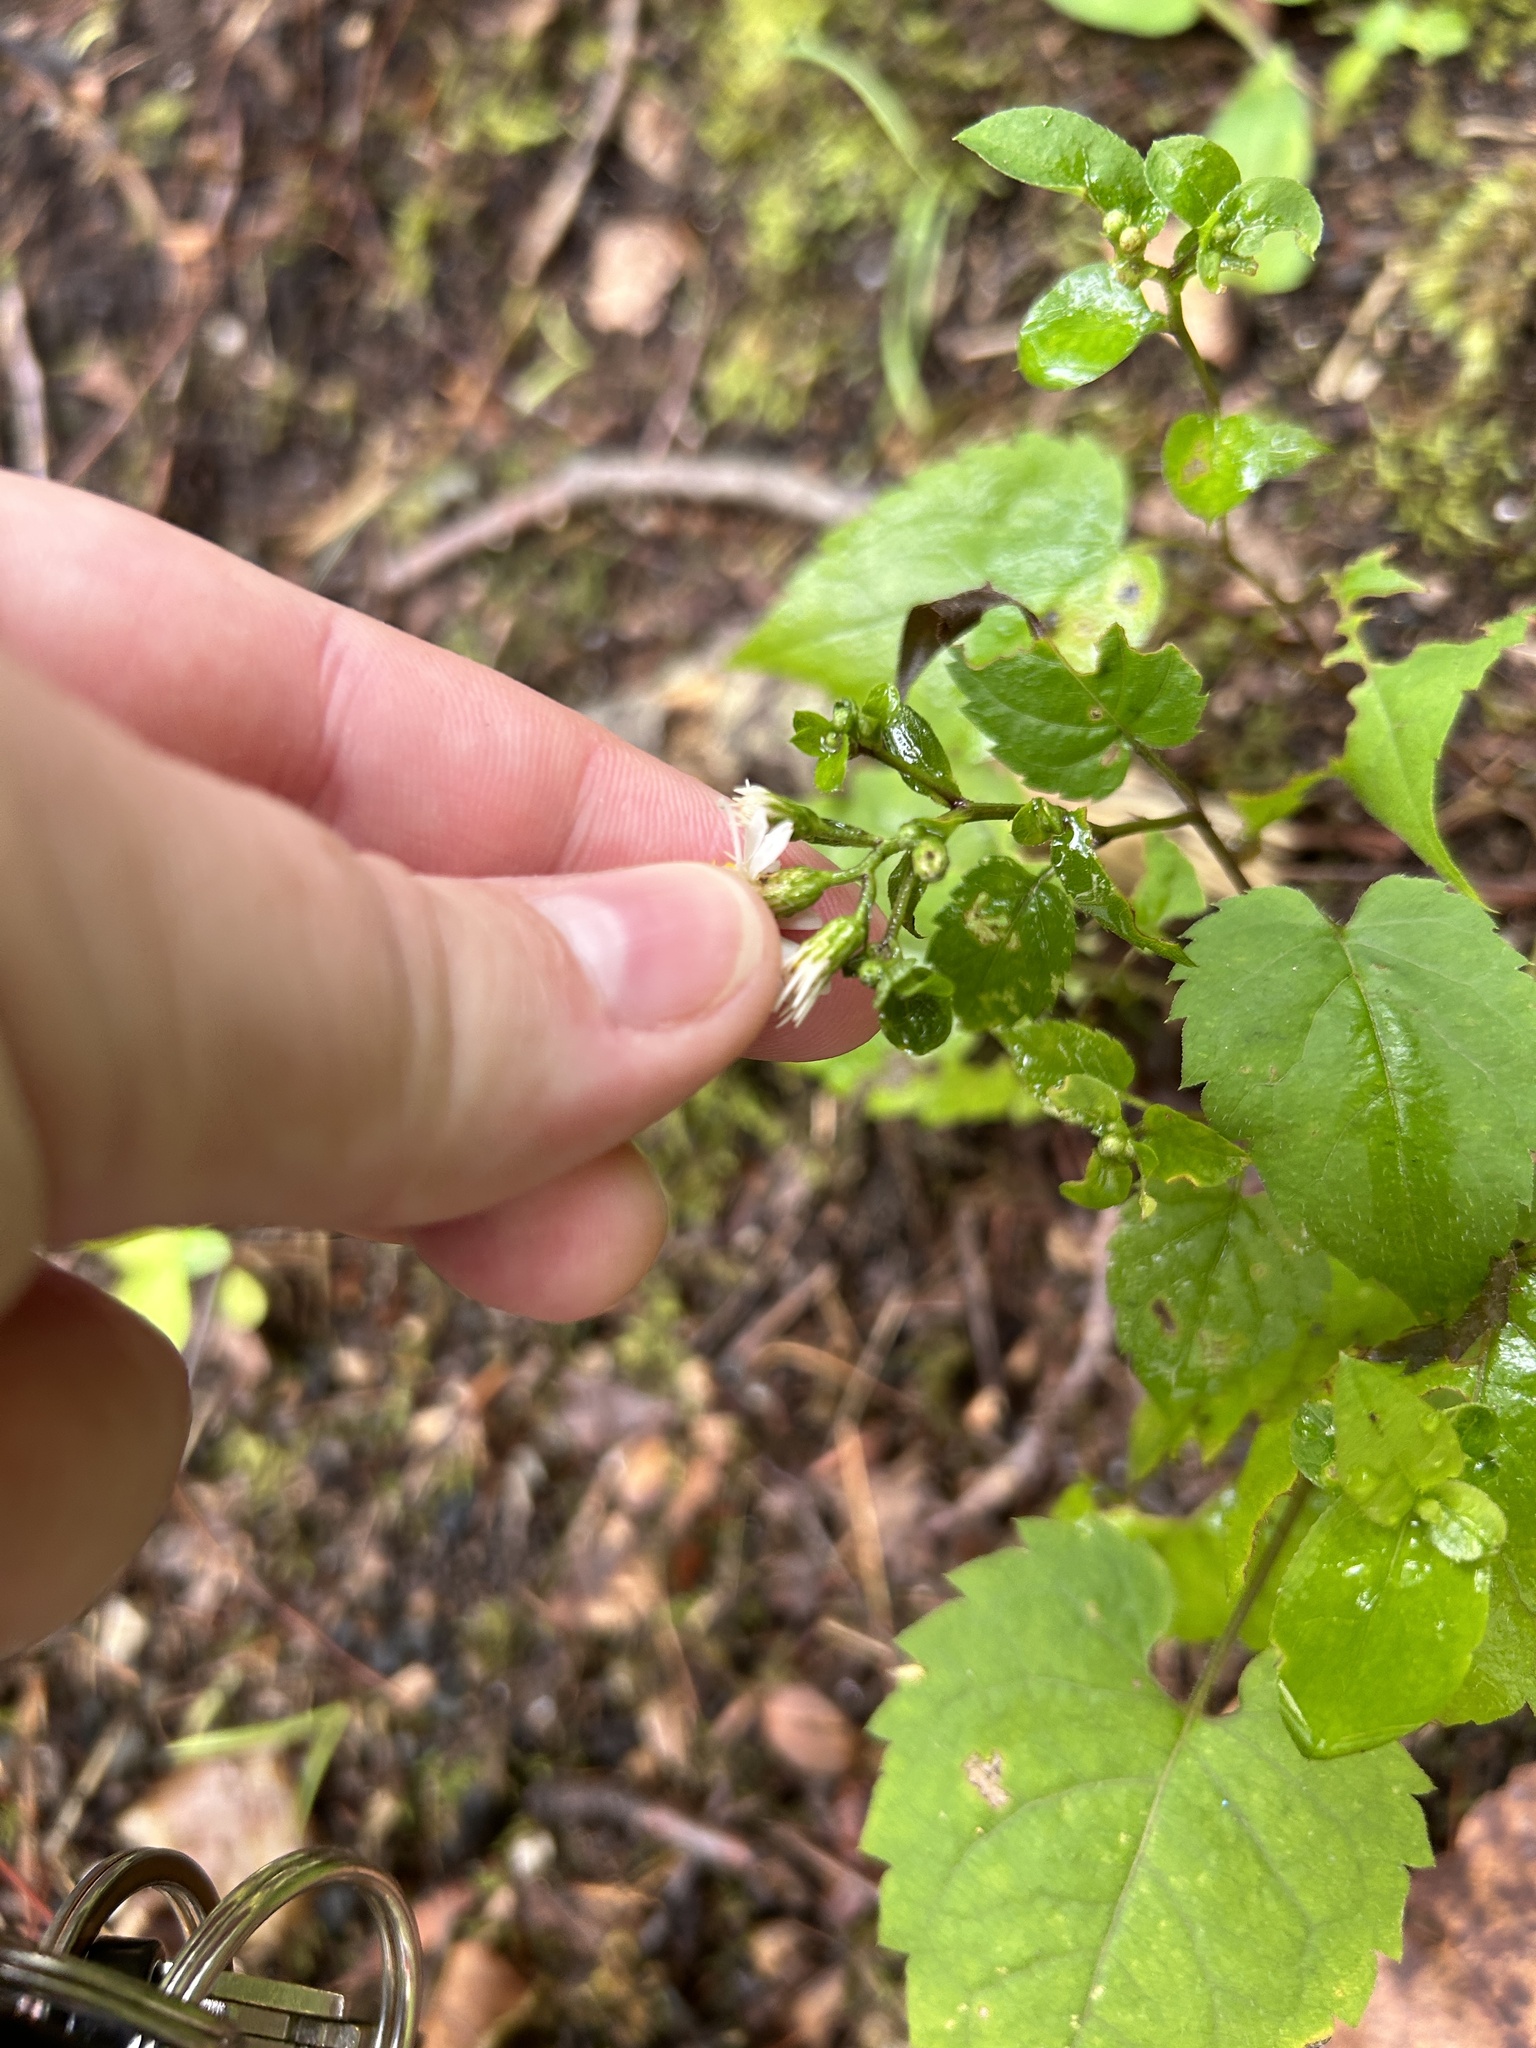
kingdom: Plantae
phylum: Tracheophyta
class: Magnoliopsida
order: Asterales
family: Asteraceae
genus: Eurybia
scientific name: Eurybia divaricata
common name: White wood aster
